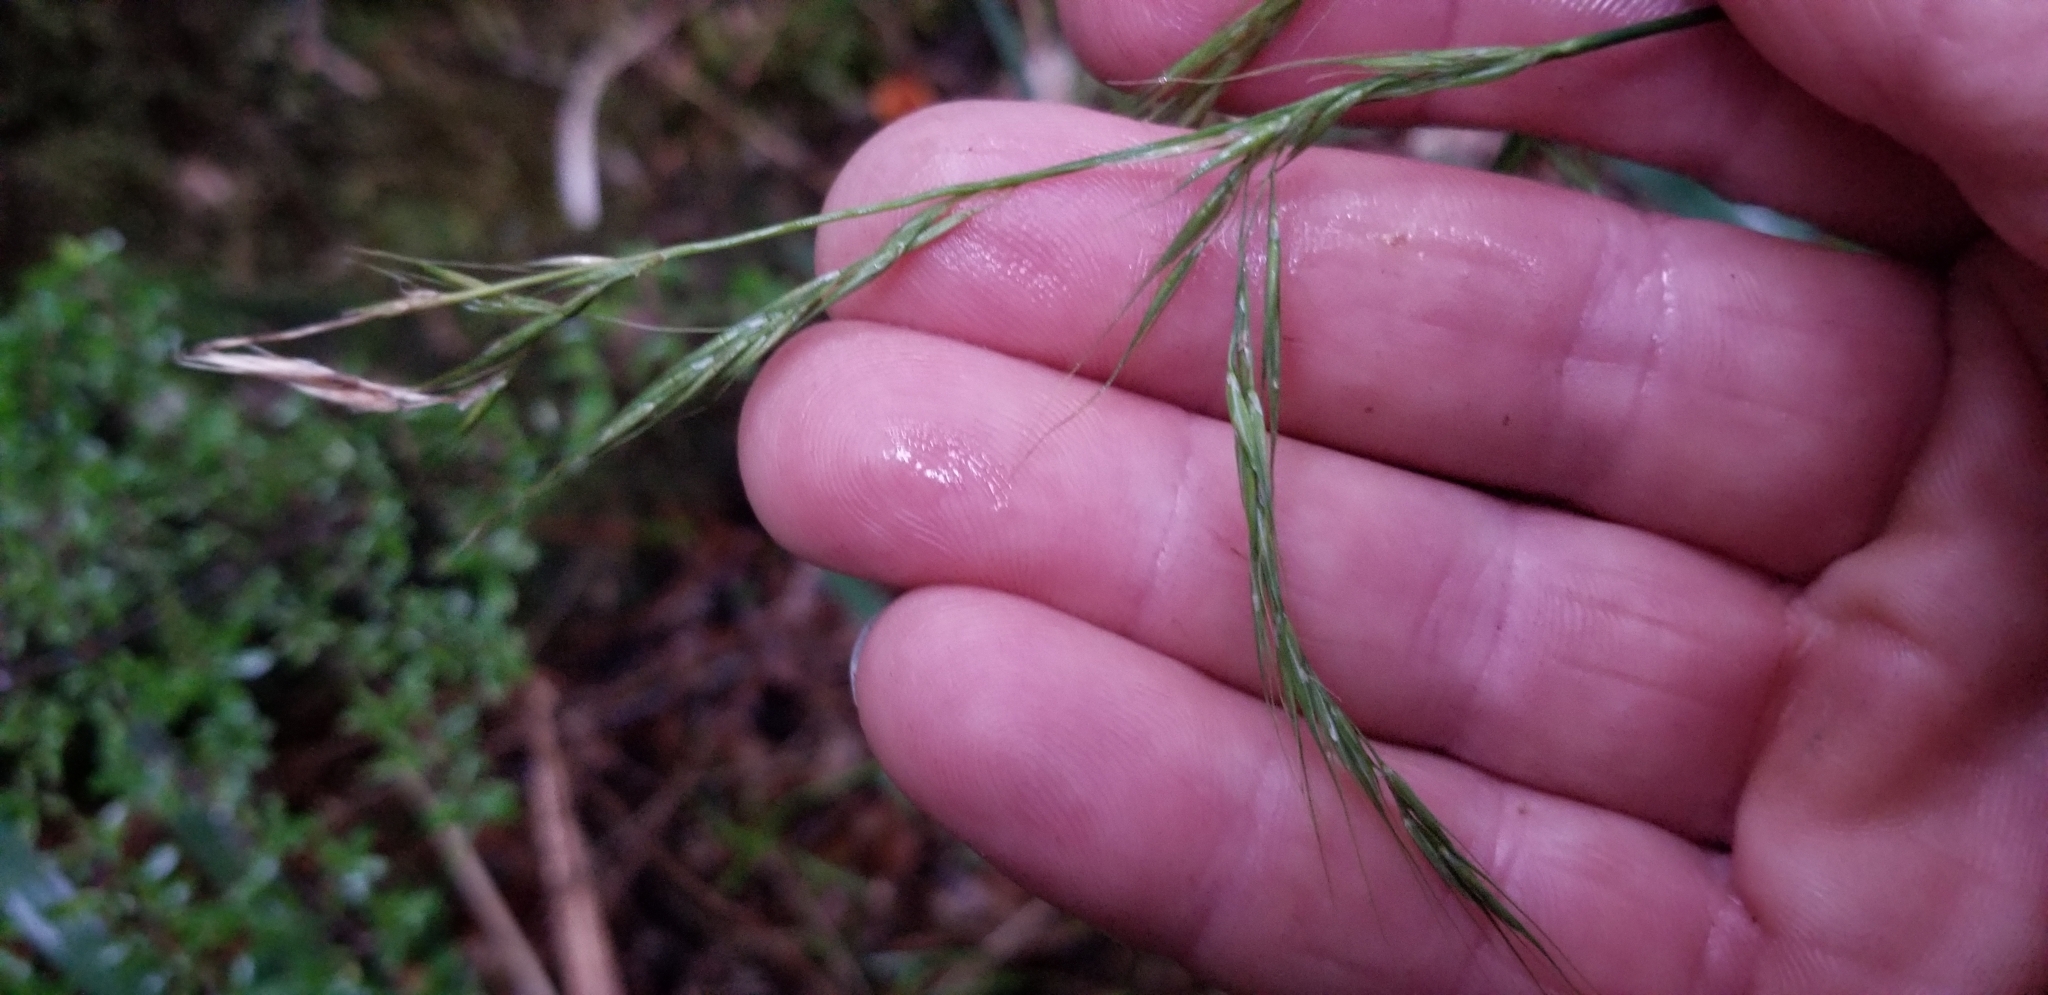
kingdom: Plantae
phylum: Tracheophyta
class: Liliopsida
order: Poales
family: Poaceae
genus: Ehrharta
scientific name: Ehrharta diplax
